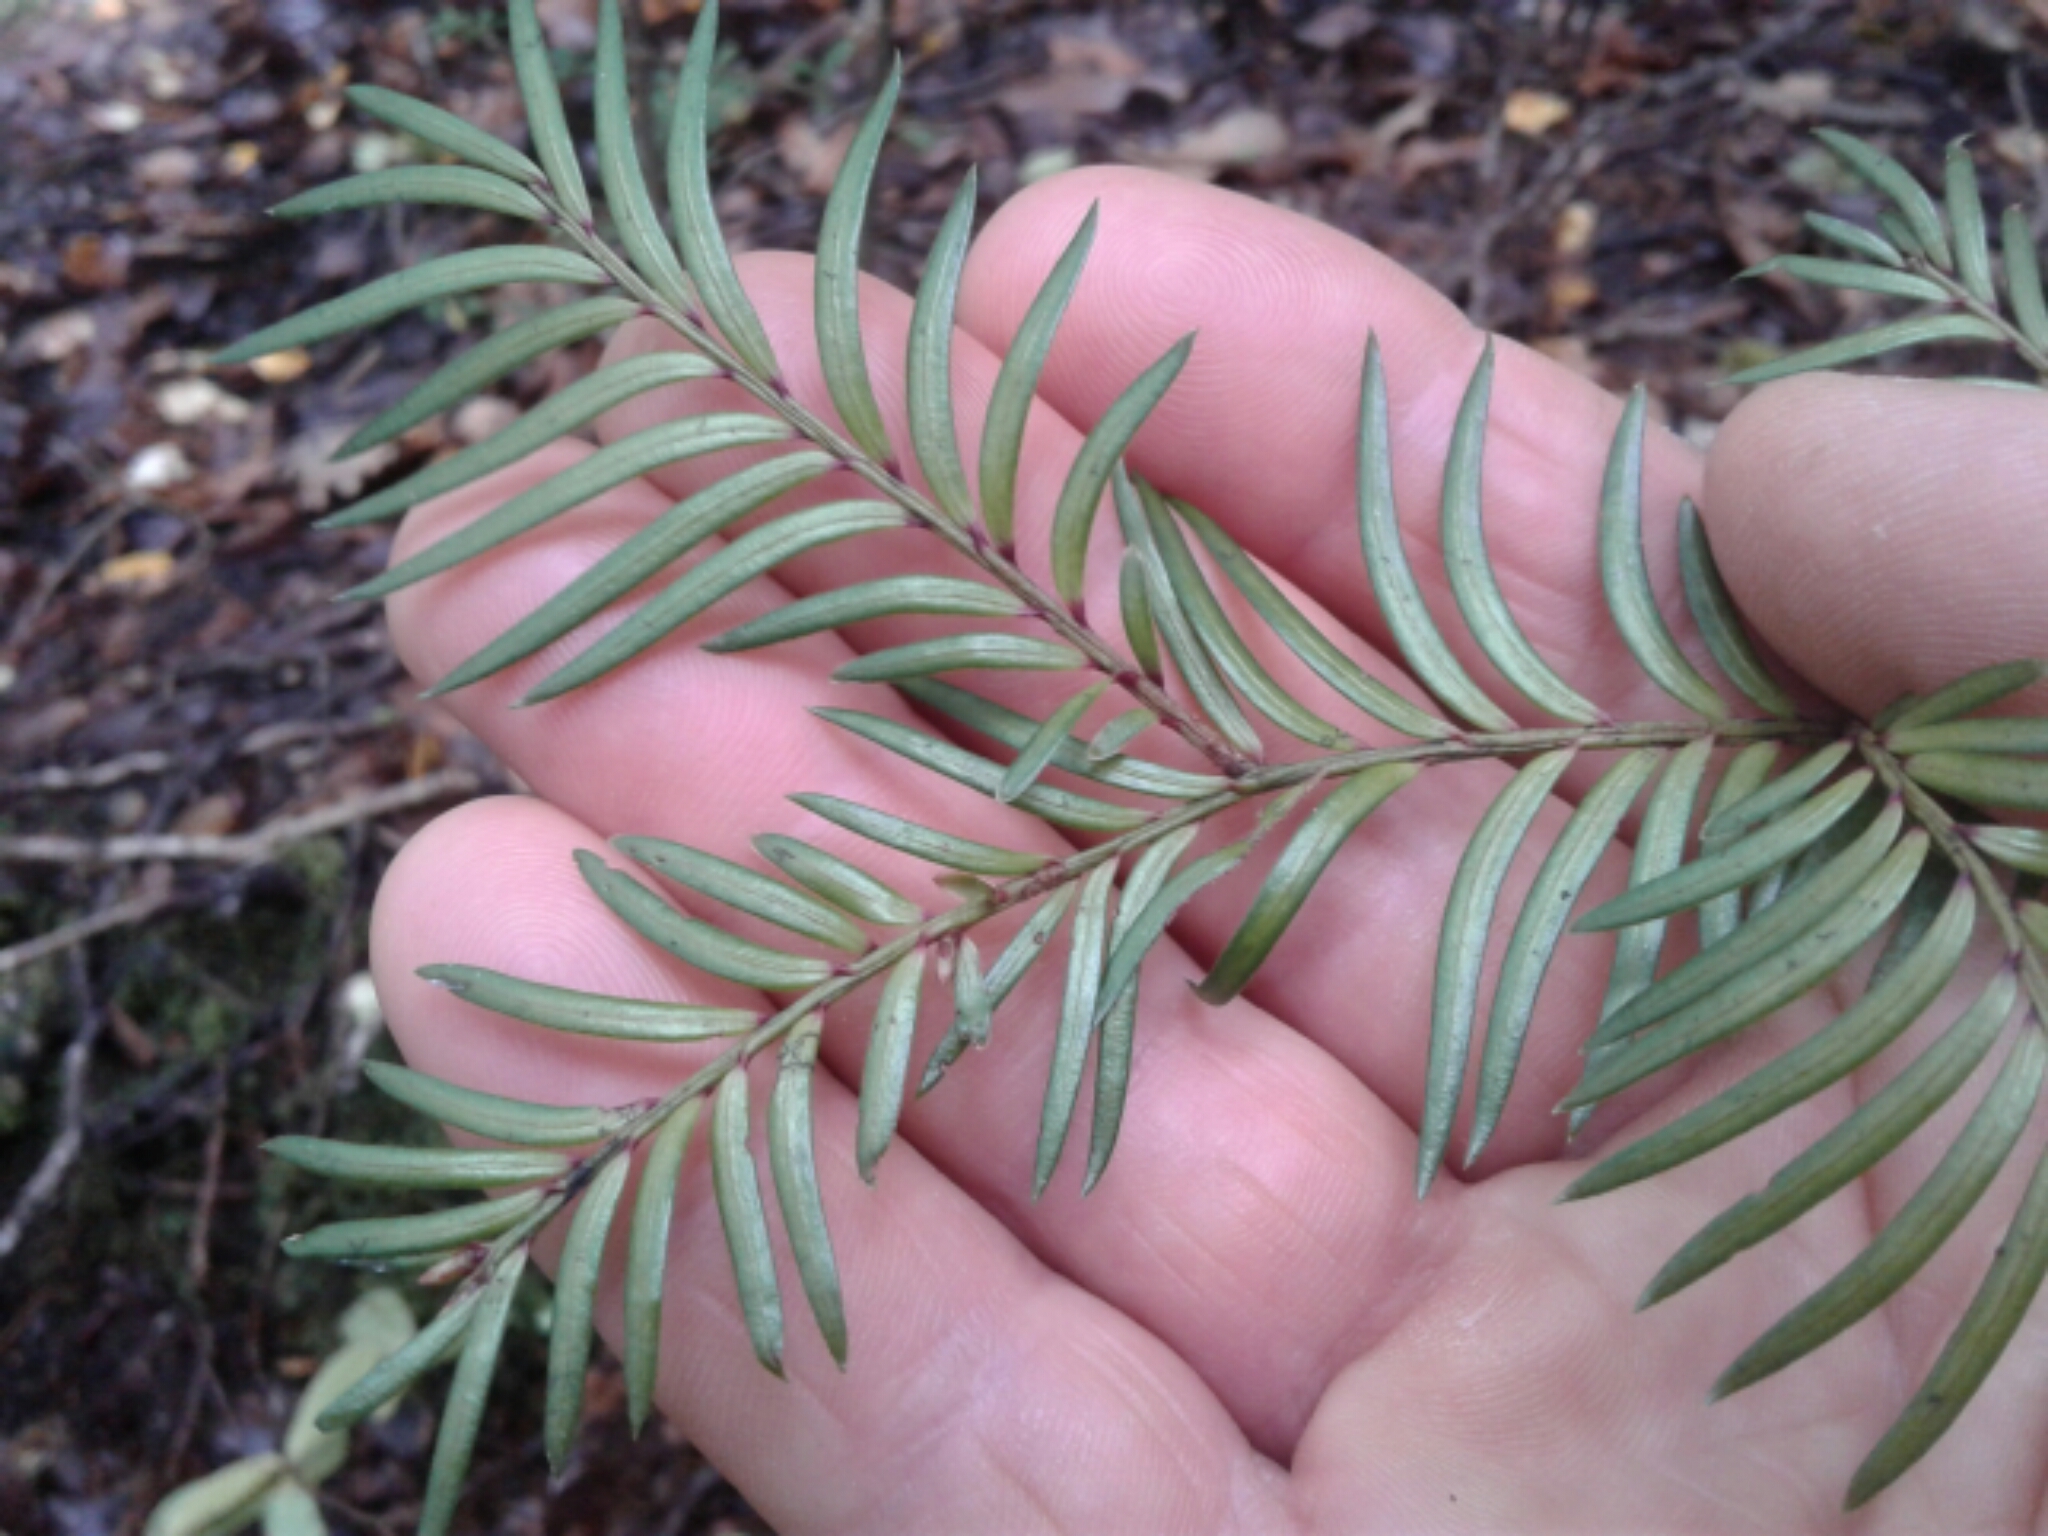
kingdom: Plantae
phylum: Tracheophyta
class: Pinopsida
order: Pinales
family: Podocarpaceae
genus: Prumnopitys
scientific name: Prumnopitys ferruginea
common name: Brown pine
